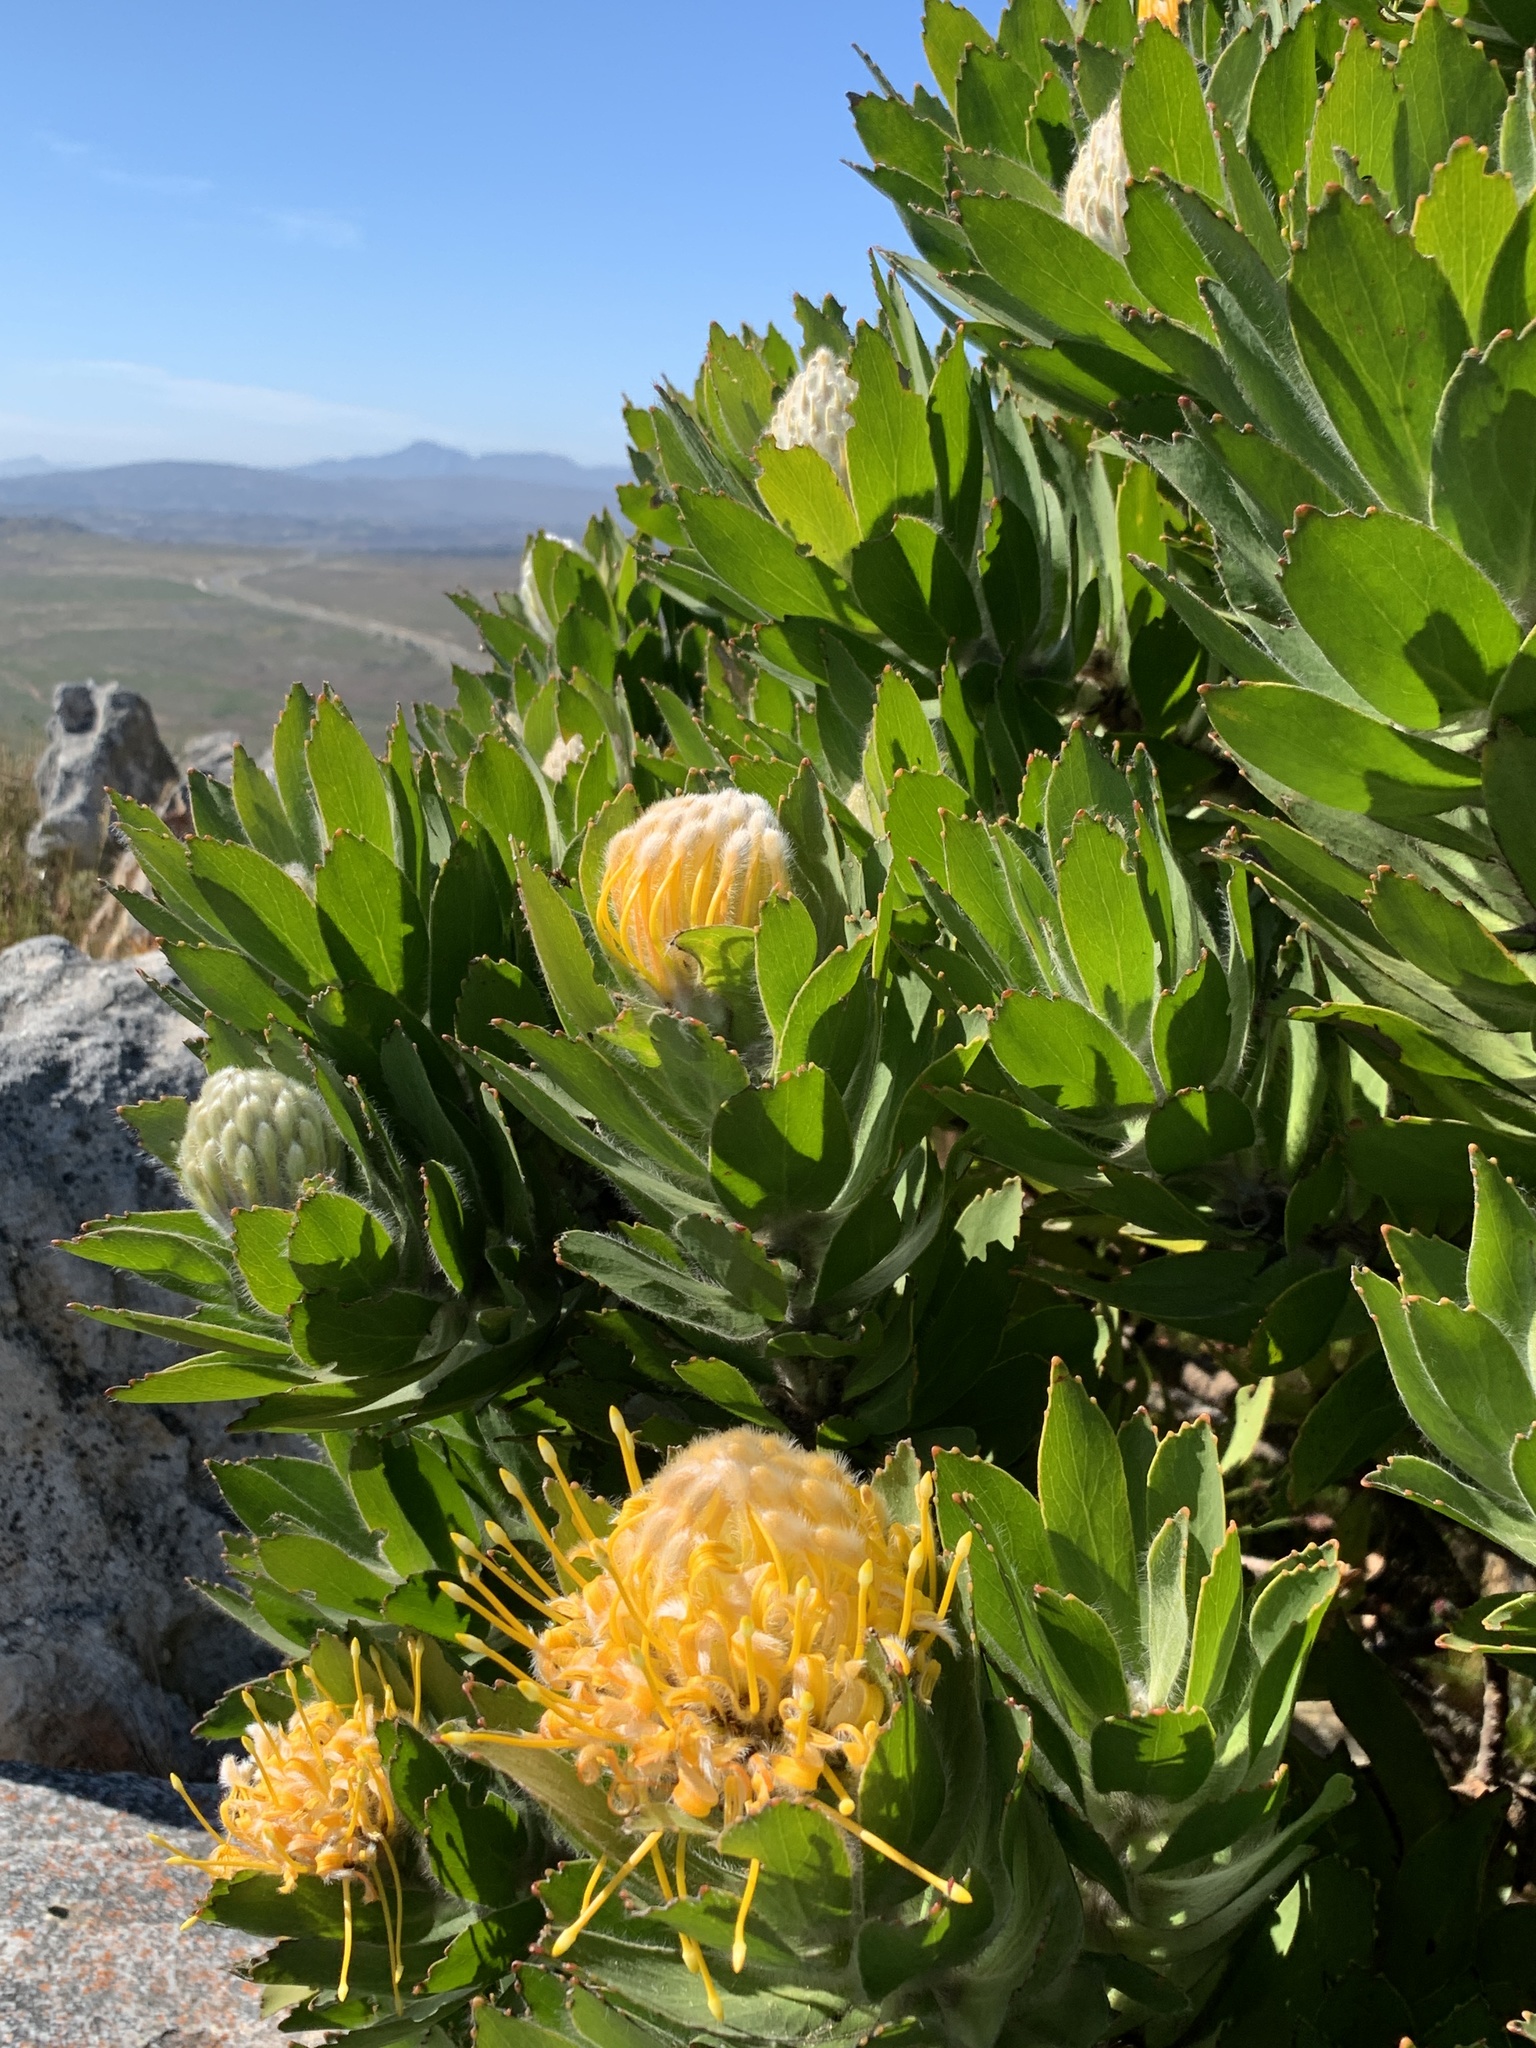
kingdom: Plantae
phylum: Tracheophyta
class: Magnoliopsida
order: Proteales
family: Proteaceae
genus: Leucospermum
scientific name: Leucospermum conocarpodendron
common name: Tree pincushion
